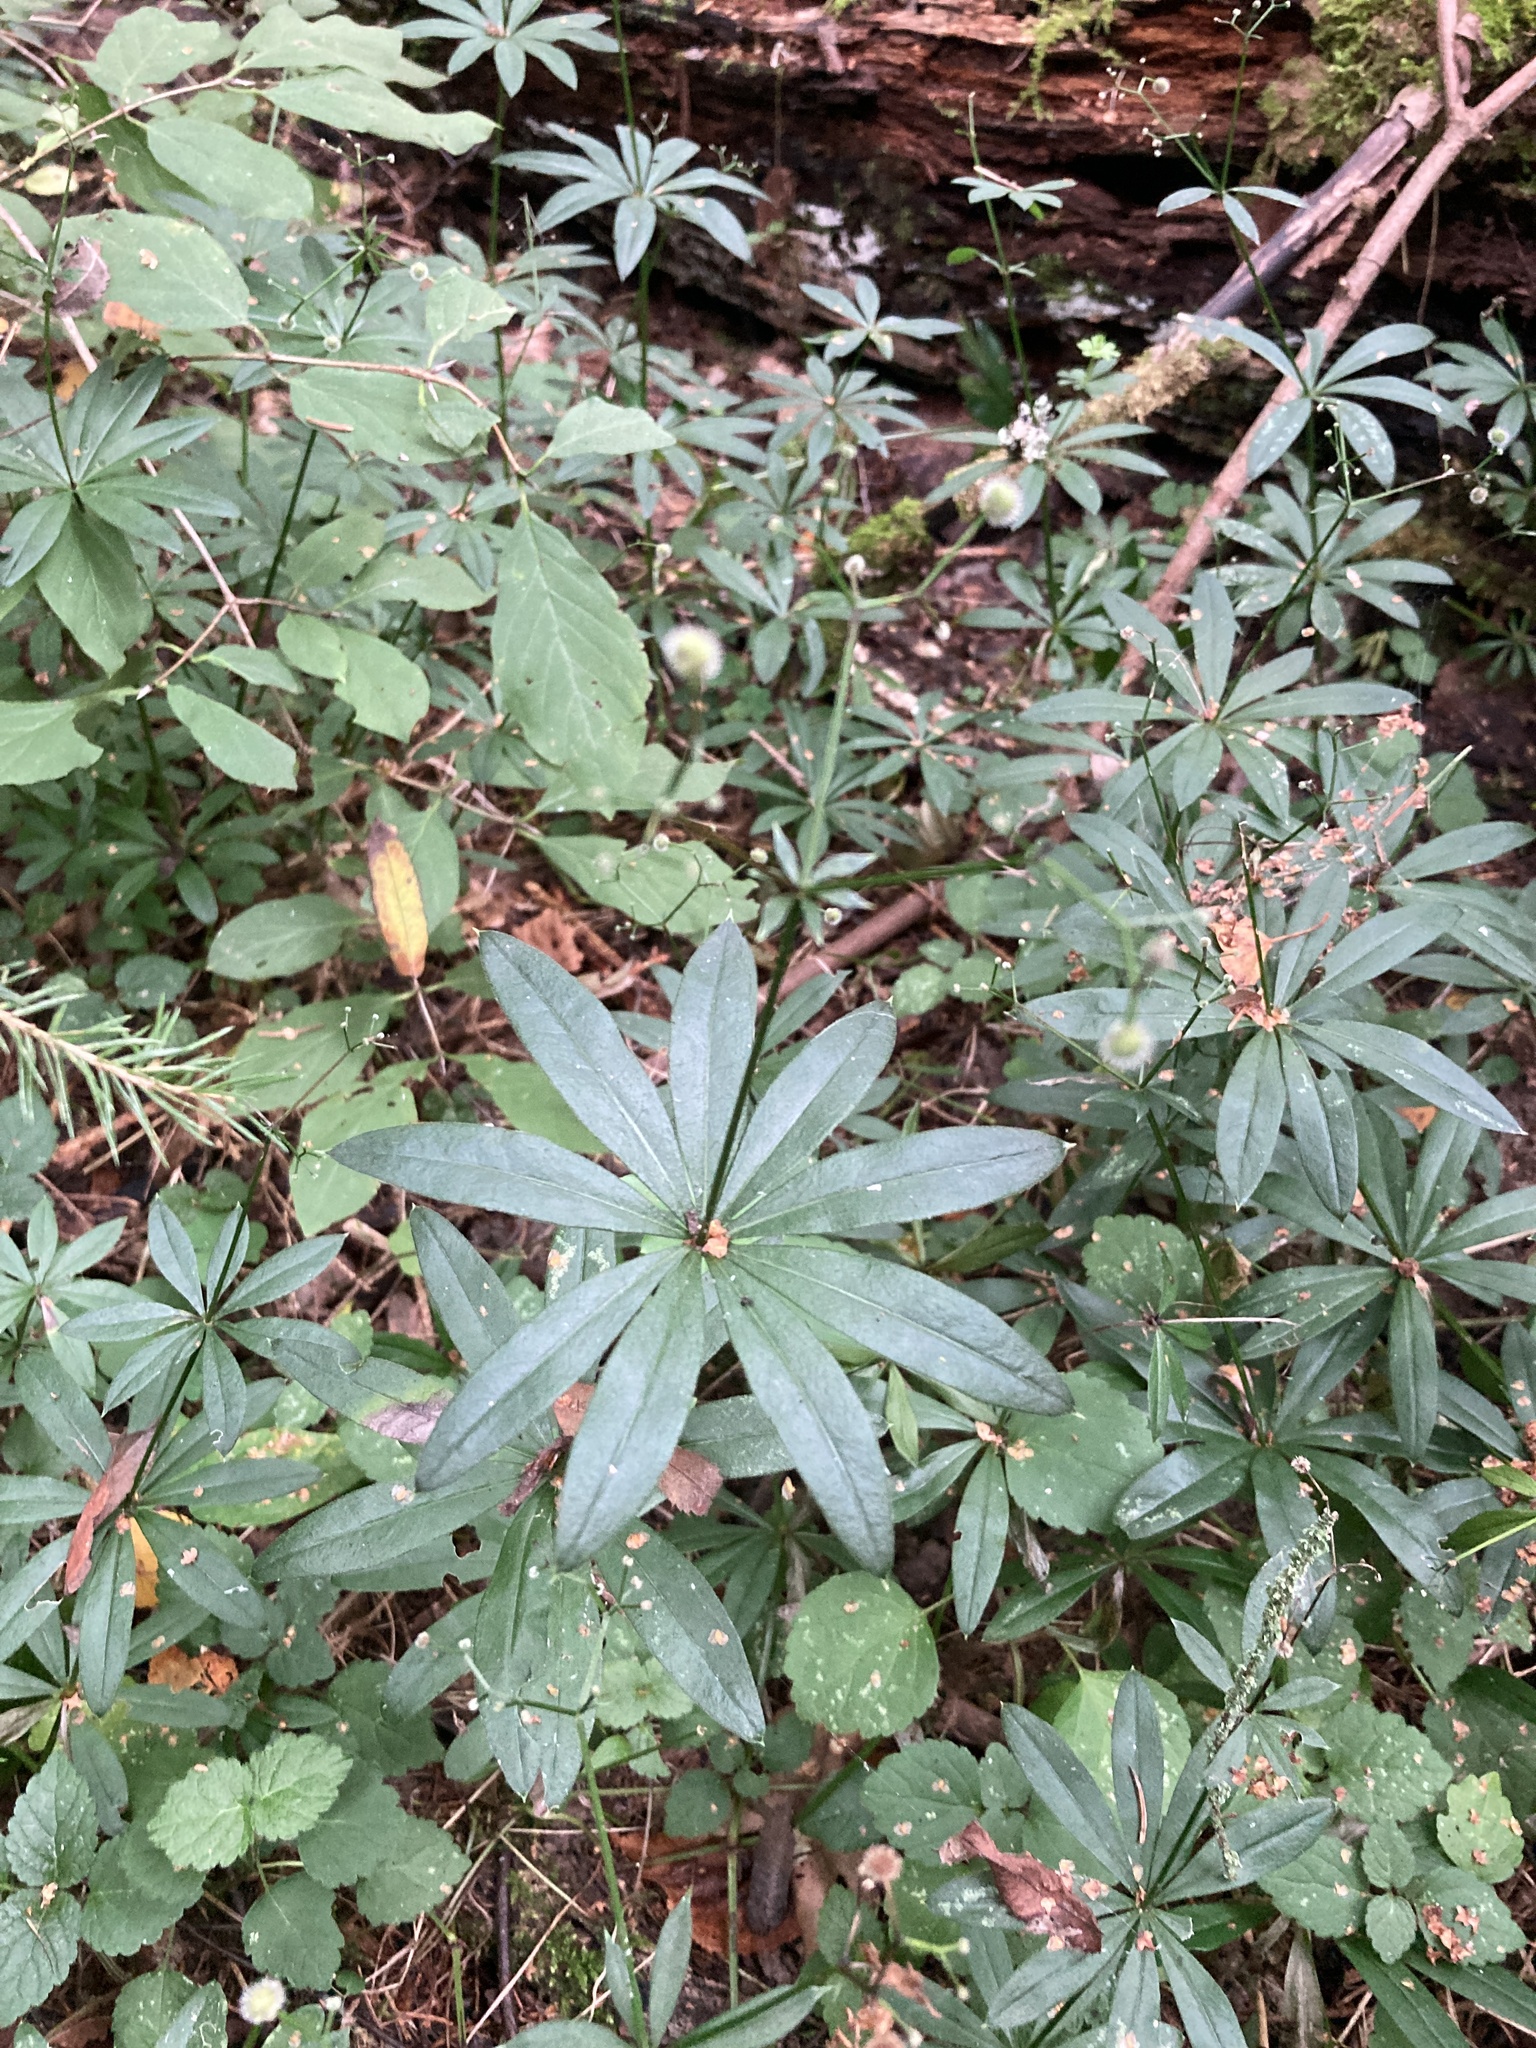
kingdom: Plantae
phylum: Tracheophyta
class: Magnoliopsida
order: Gentianales
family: Rubiaceae
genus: Galium
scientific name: Galium odoratum
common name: Sweet woodruff
